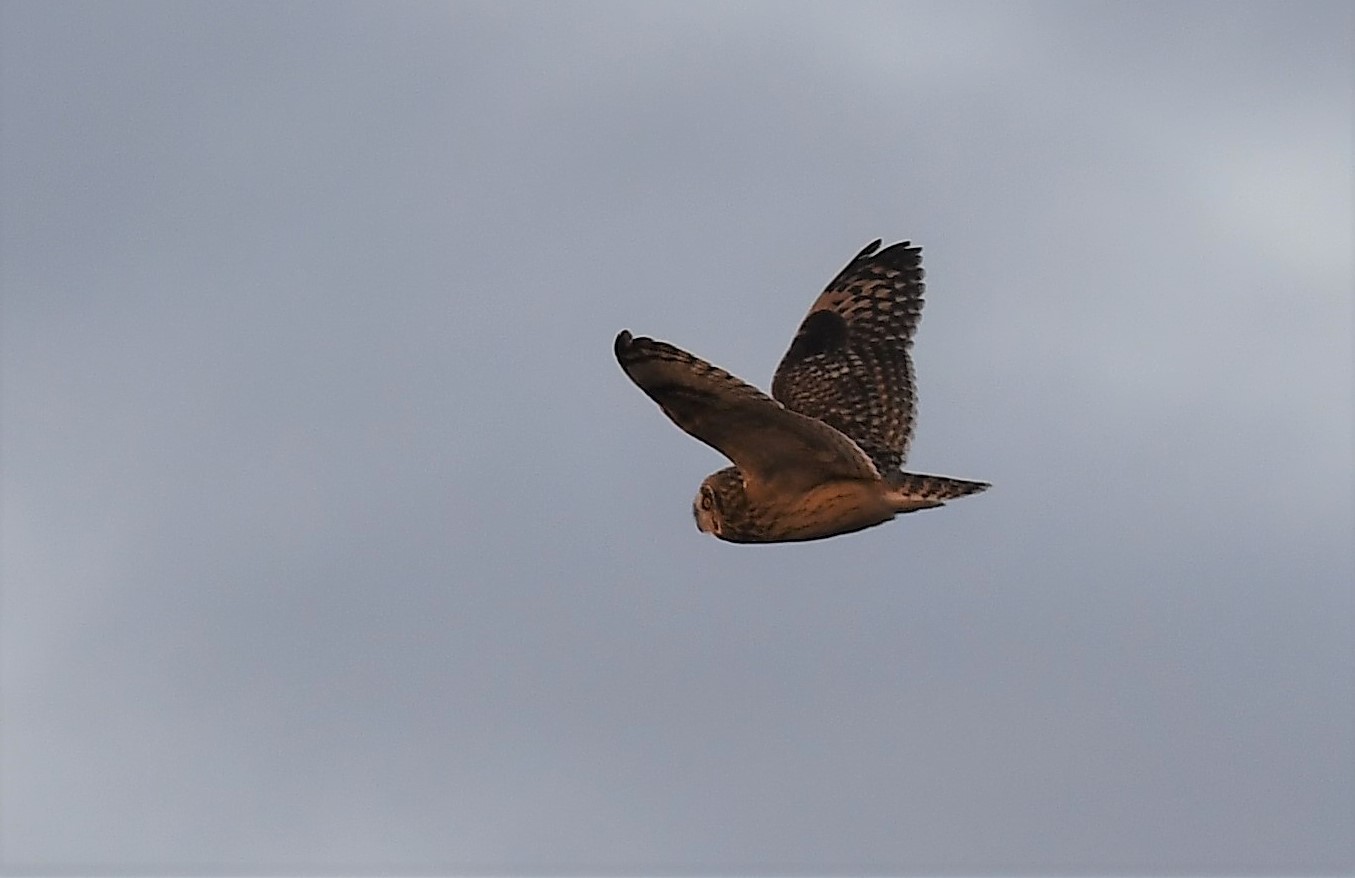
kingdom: Animalia
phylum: Chordata
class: Aves
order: Strigiformes
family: Strigidae
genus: Asio
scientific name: Asio flammeus
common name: Short-eared owl
